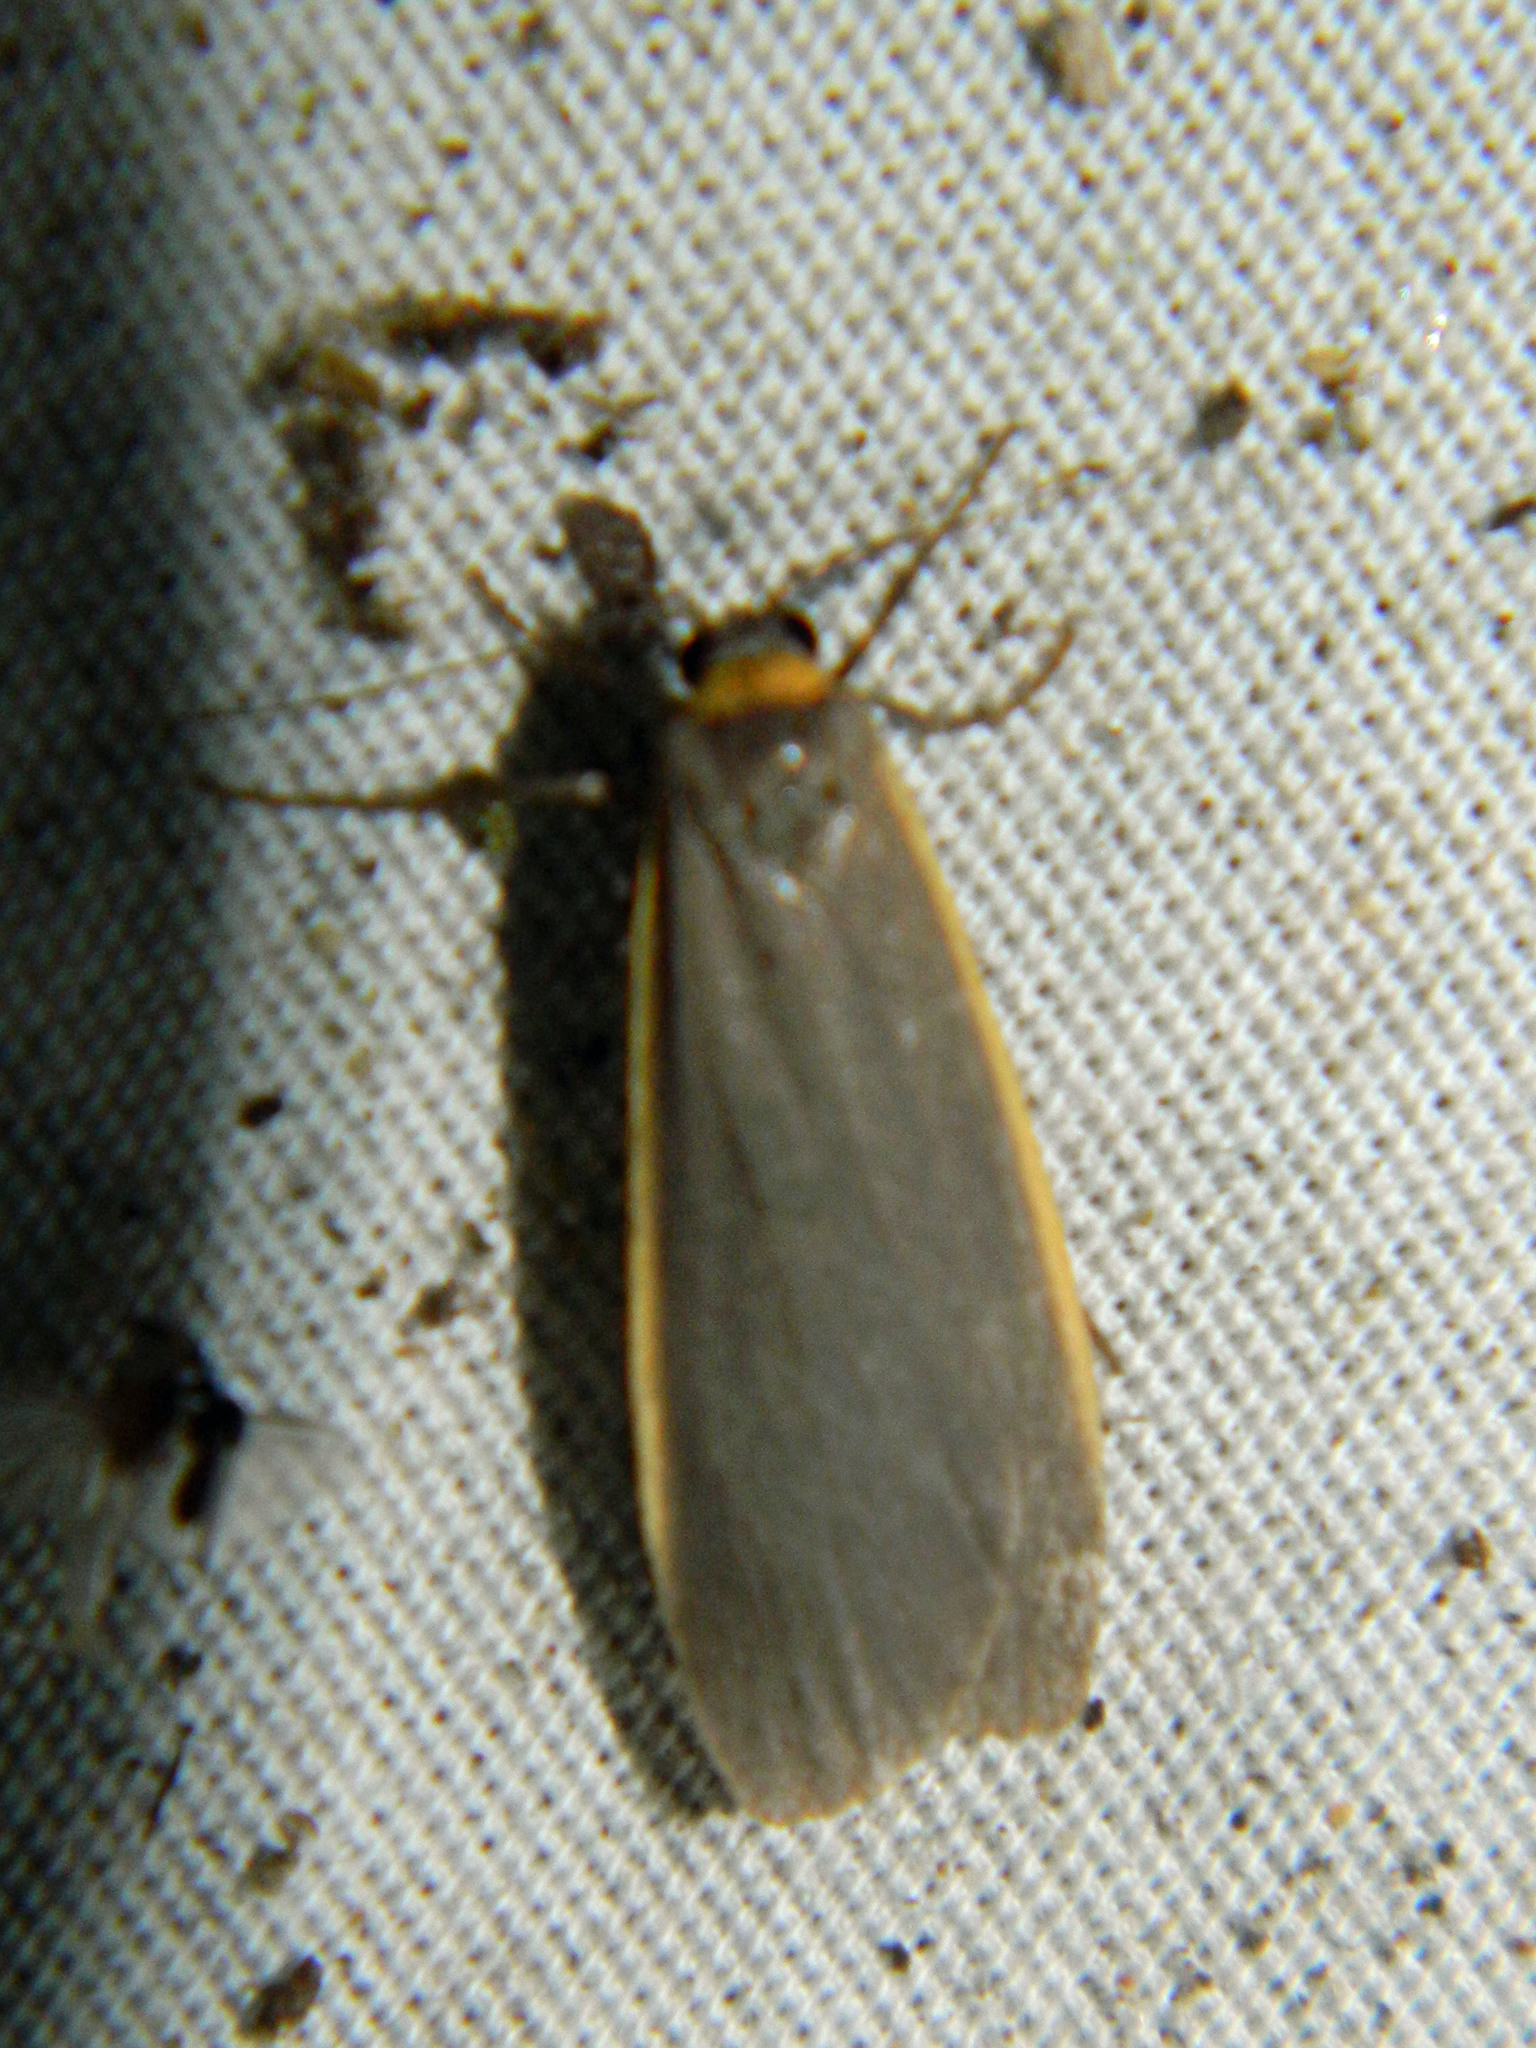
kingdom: Animalia
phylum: Arthropoda
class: Insecta
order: Lepidoptera
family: Erebidae
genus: Manulea
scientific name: Manulea bicolor
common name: Bicolored moth
